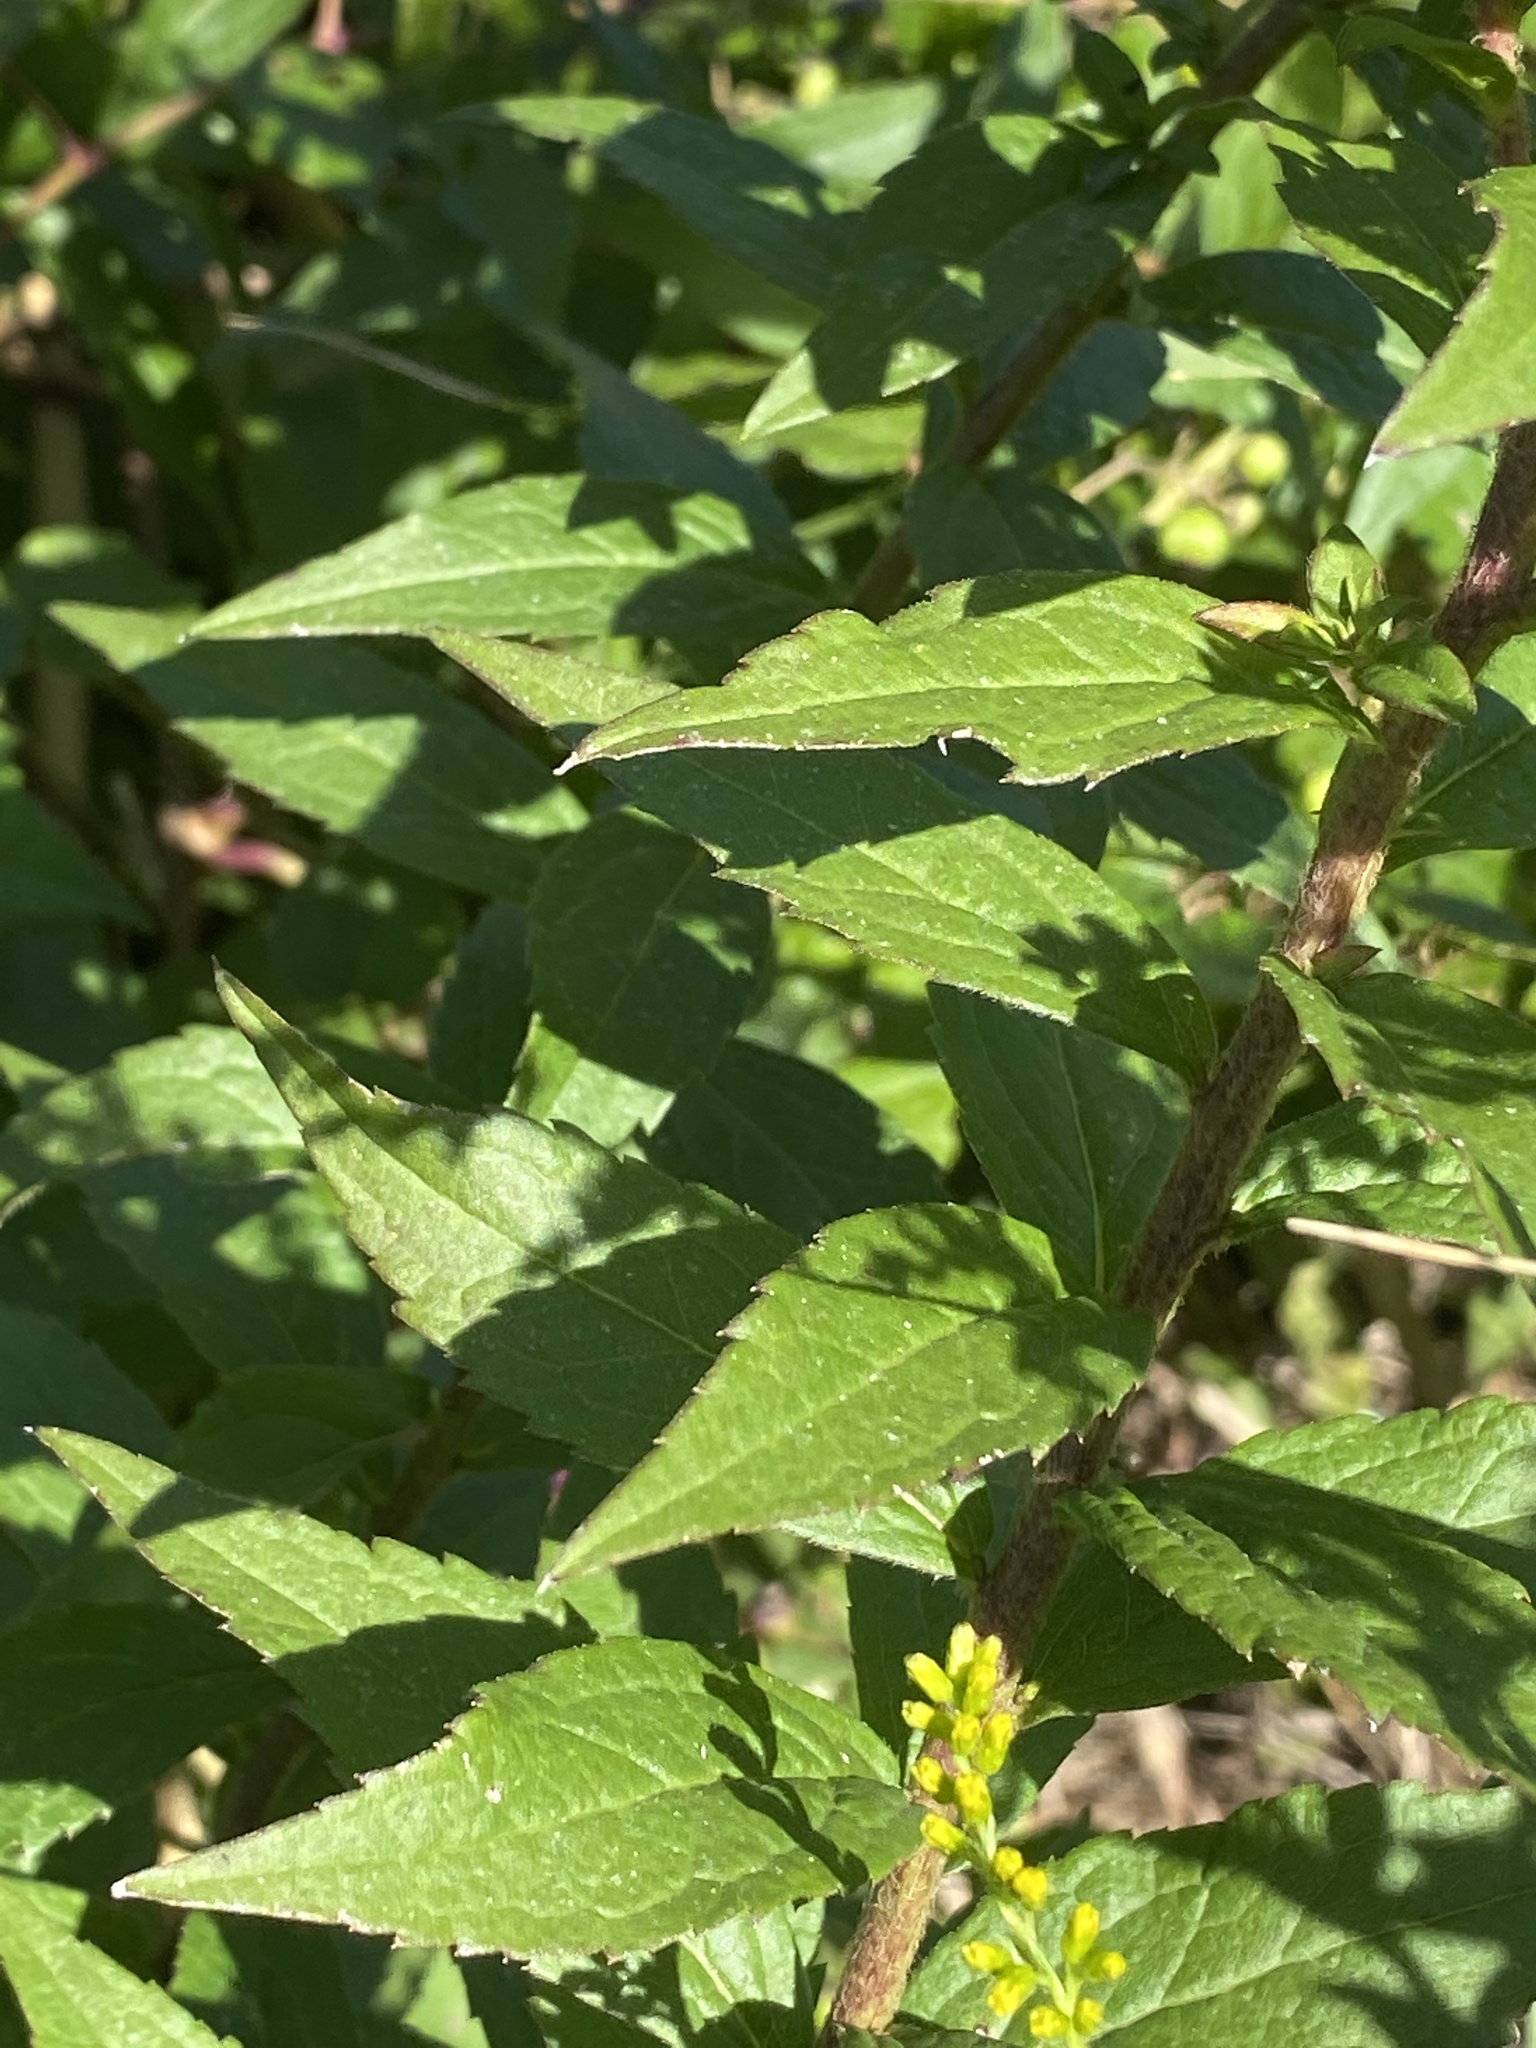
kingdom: Plantae
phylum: Tracheophyta
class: Magnoliopsida
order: Asterales
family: Asteraceae
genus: Solidago
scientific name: Solidago rugosa
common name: Rough-stemmed goldenrod
